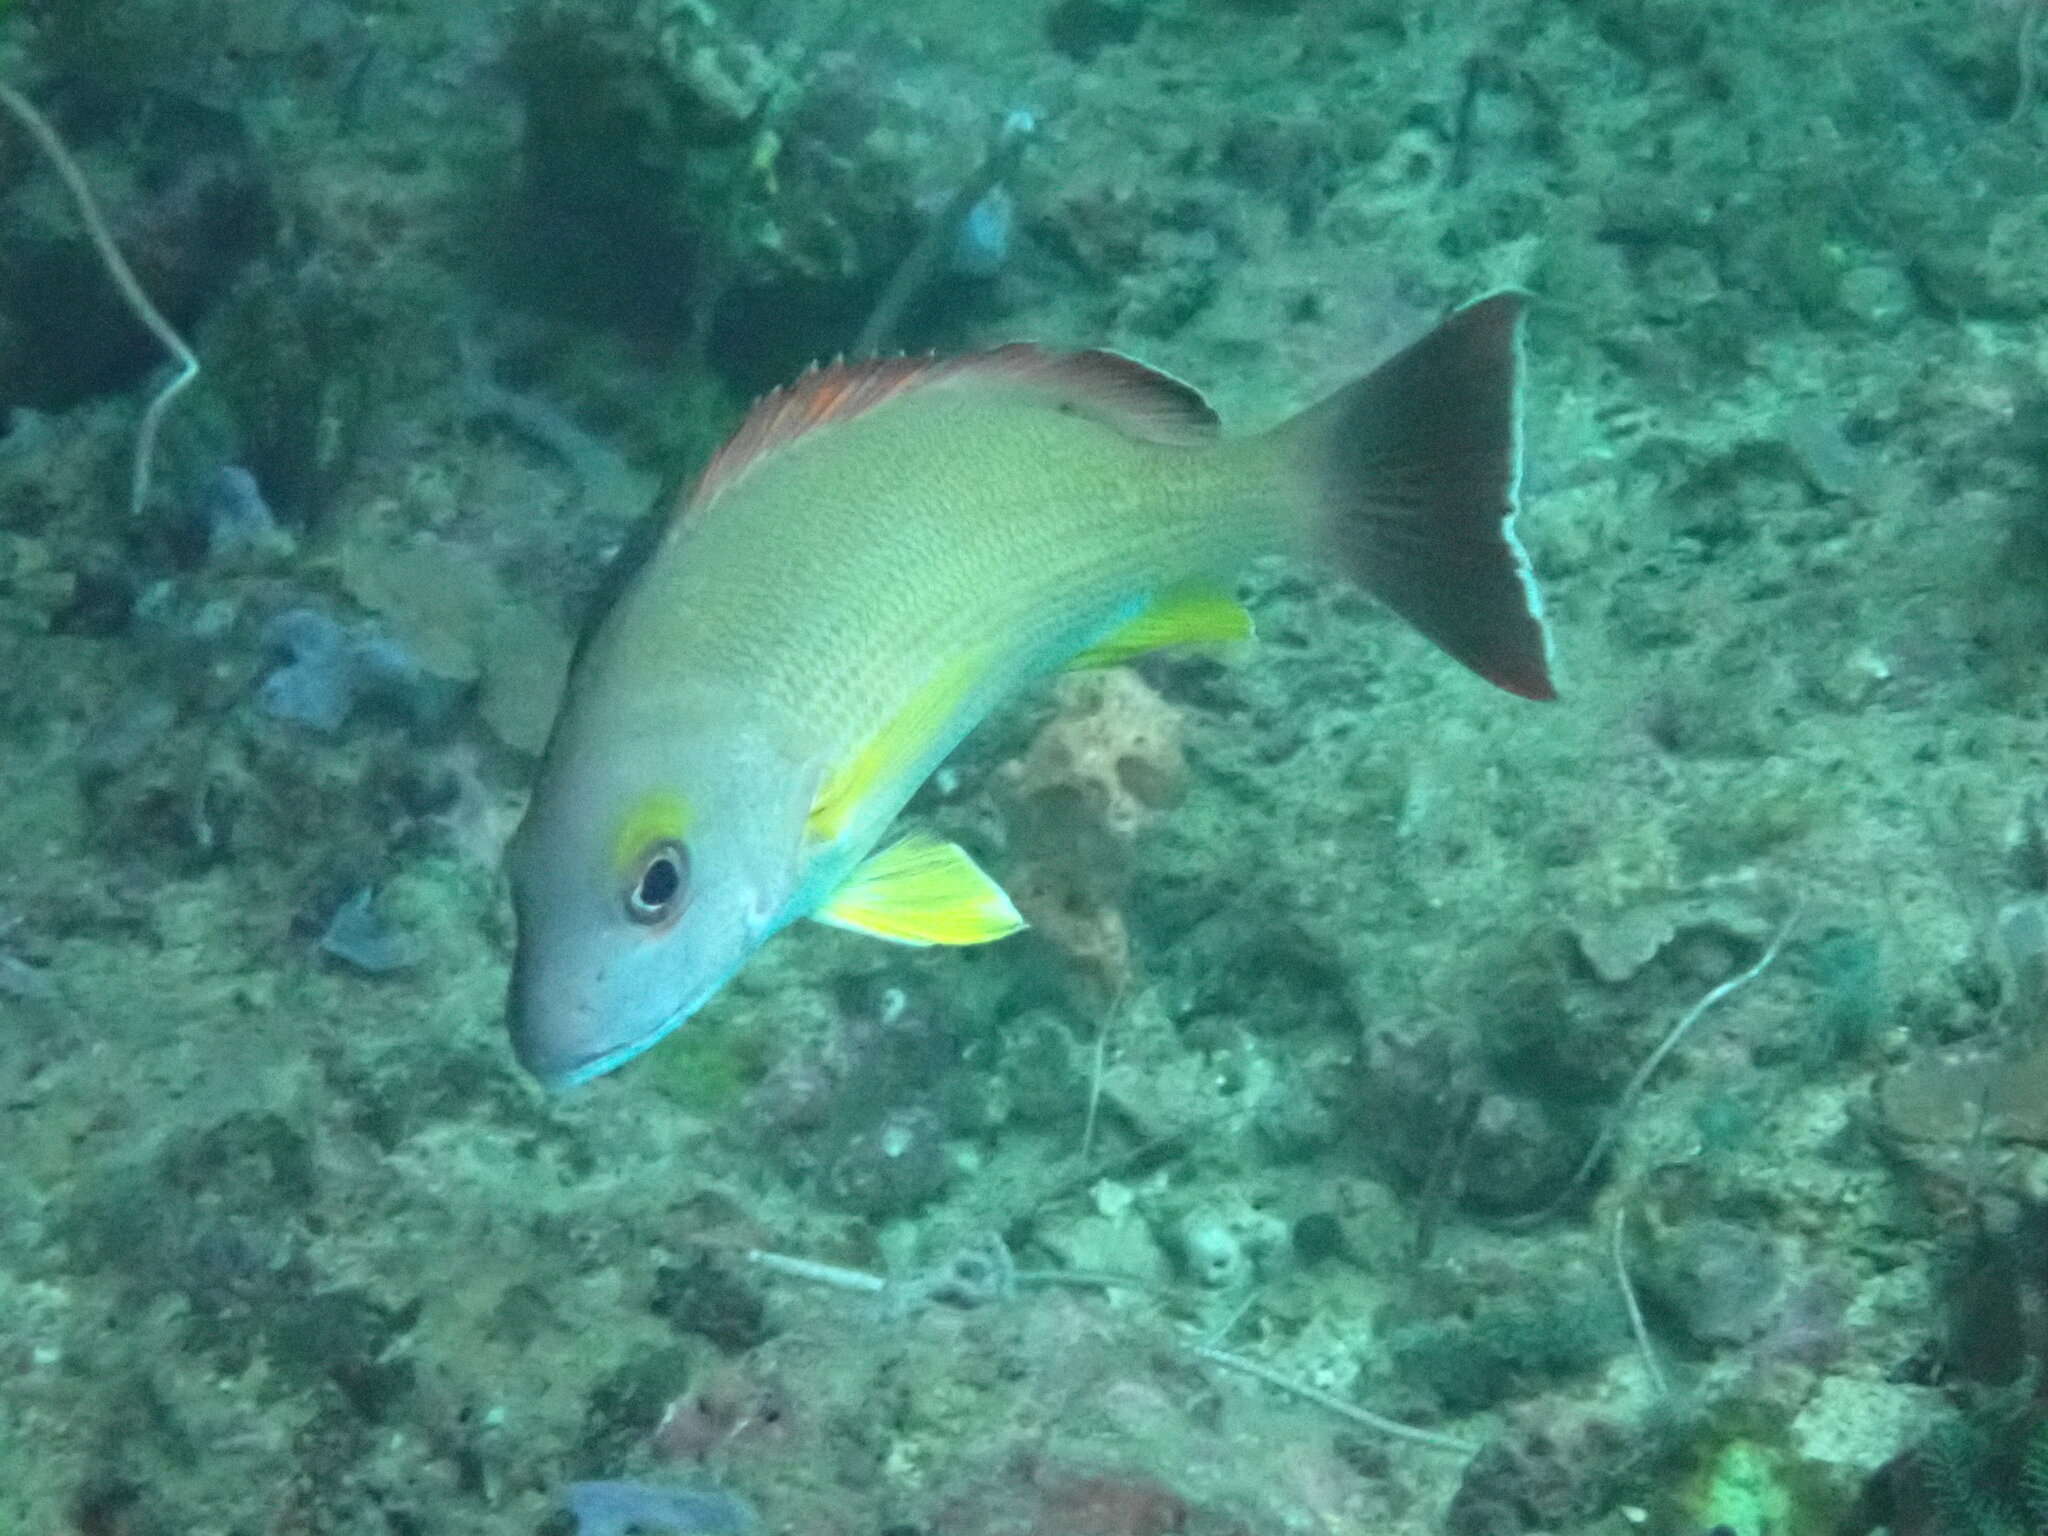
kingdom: Animalia
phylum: Chordata
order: Perciformes
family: Lutjanidae
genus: Lutjanus
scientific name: Lutjanus fulvus
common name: Blacktail snapper
